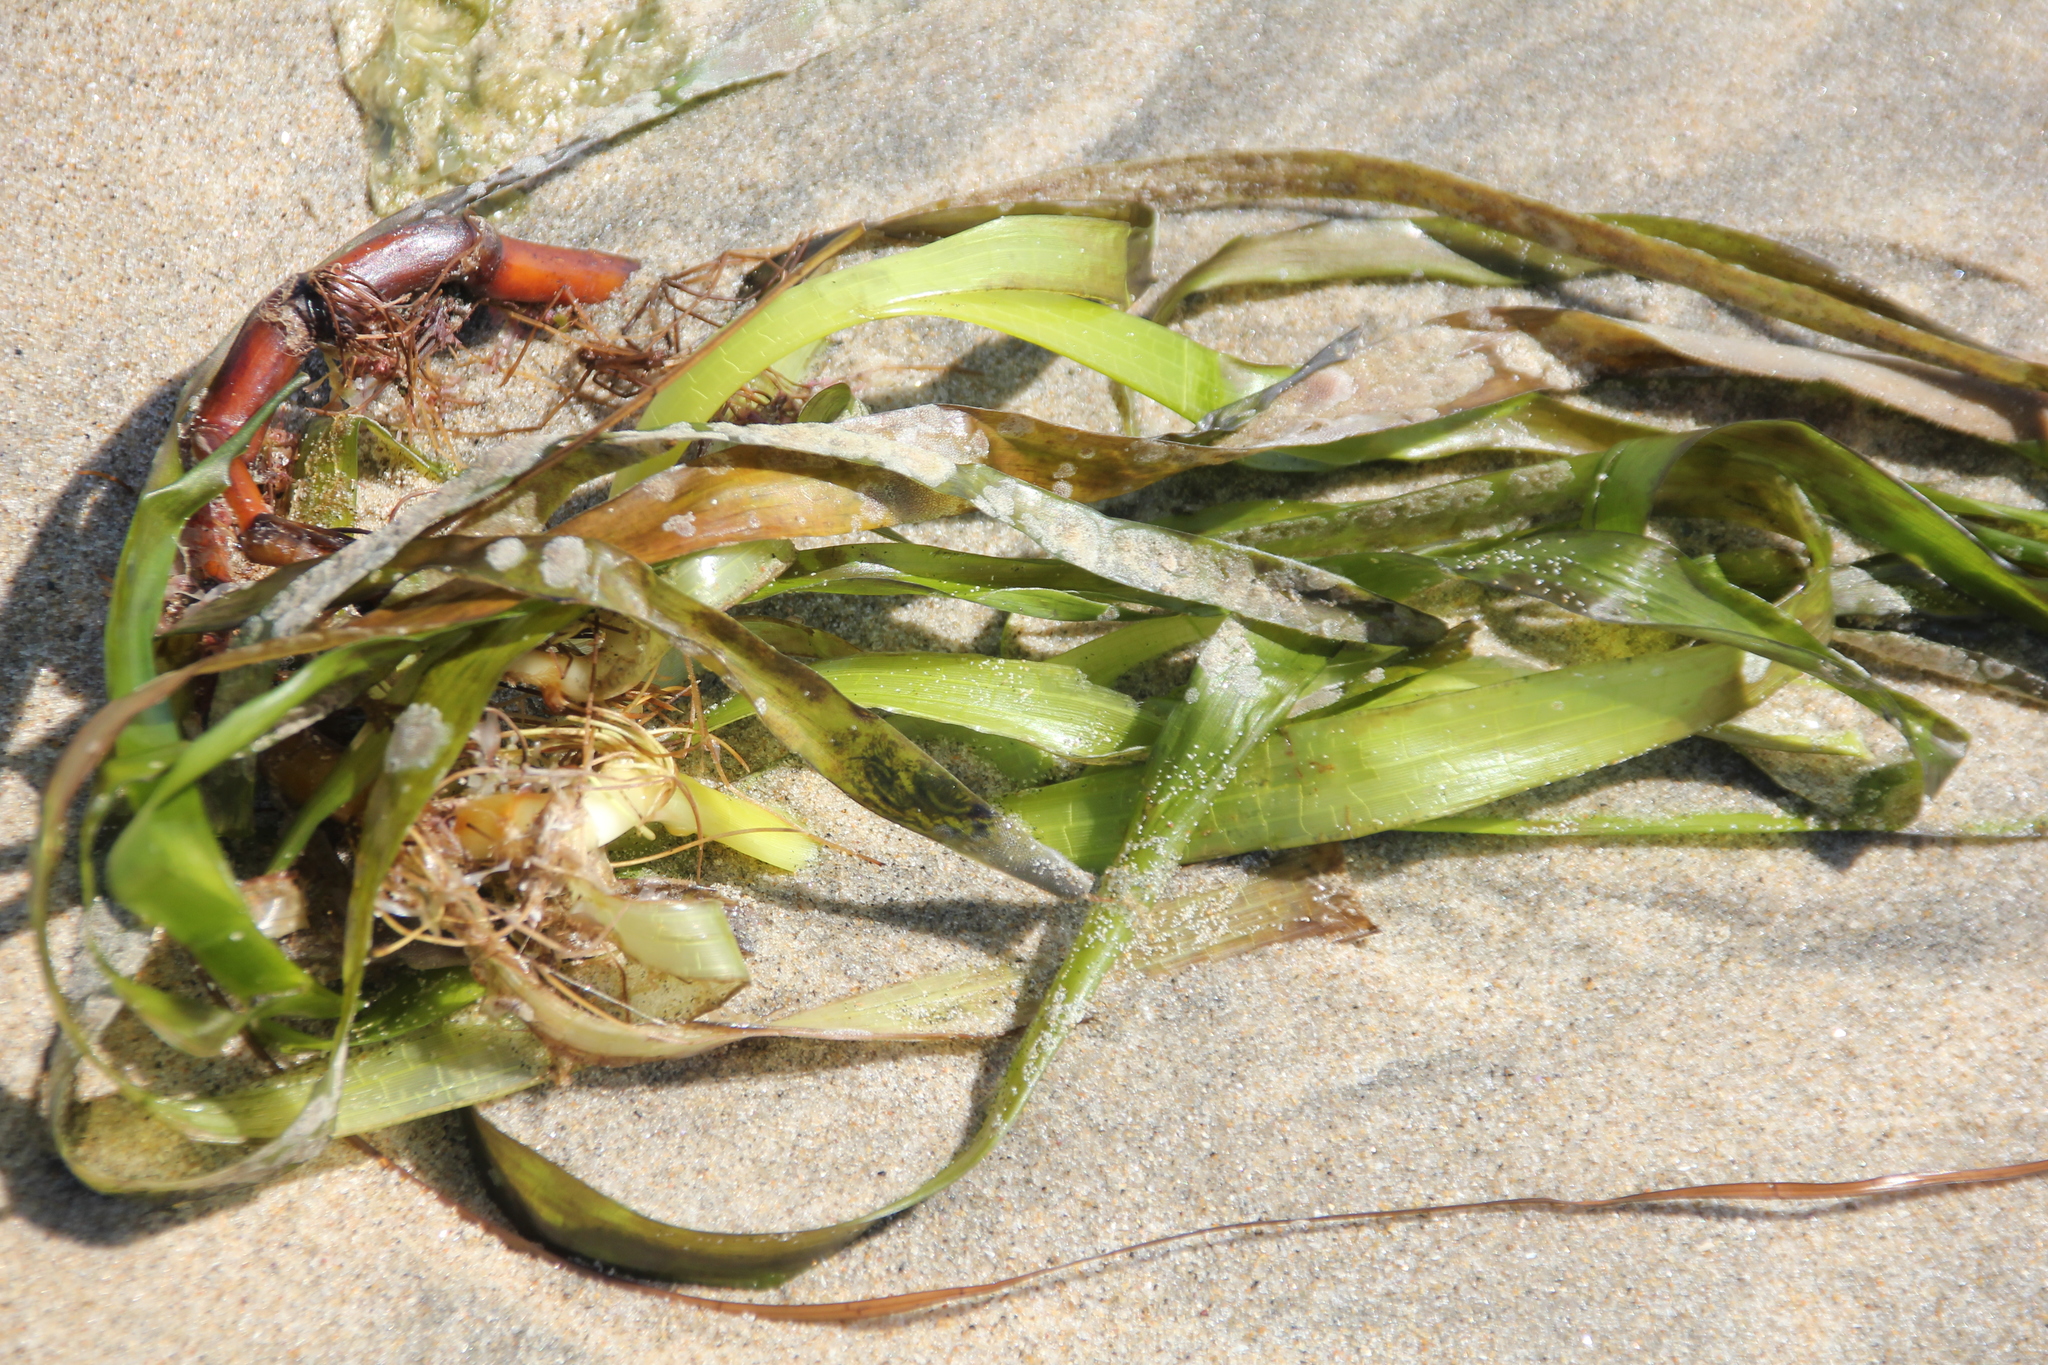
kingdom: Plantae
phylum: Tracheophyta
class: Liliopsida
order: Alismatales
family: Zosteraceae
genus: Zostera
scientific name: Zostera marina
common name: Eelgrass
